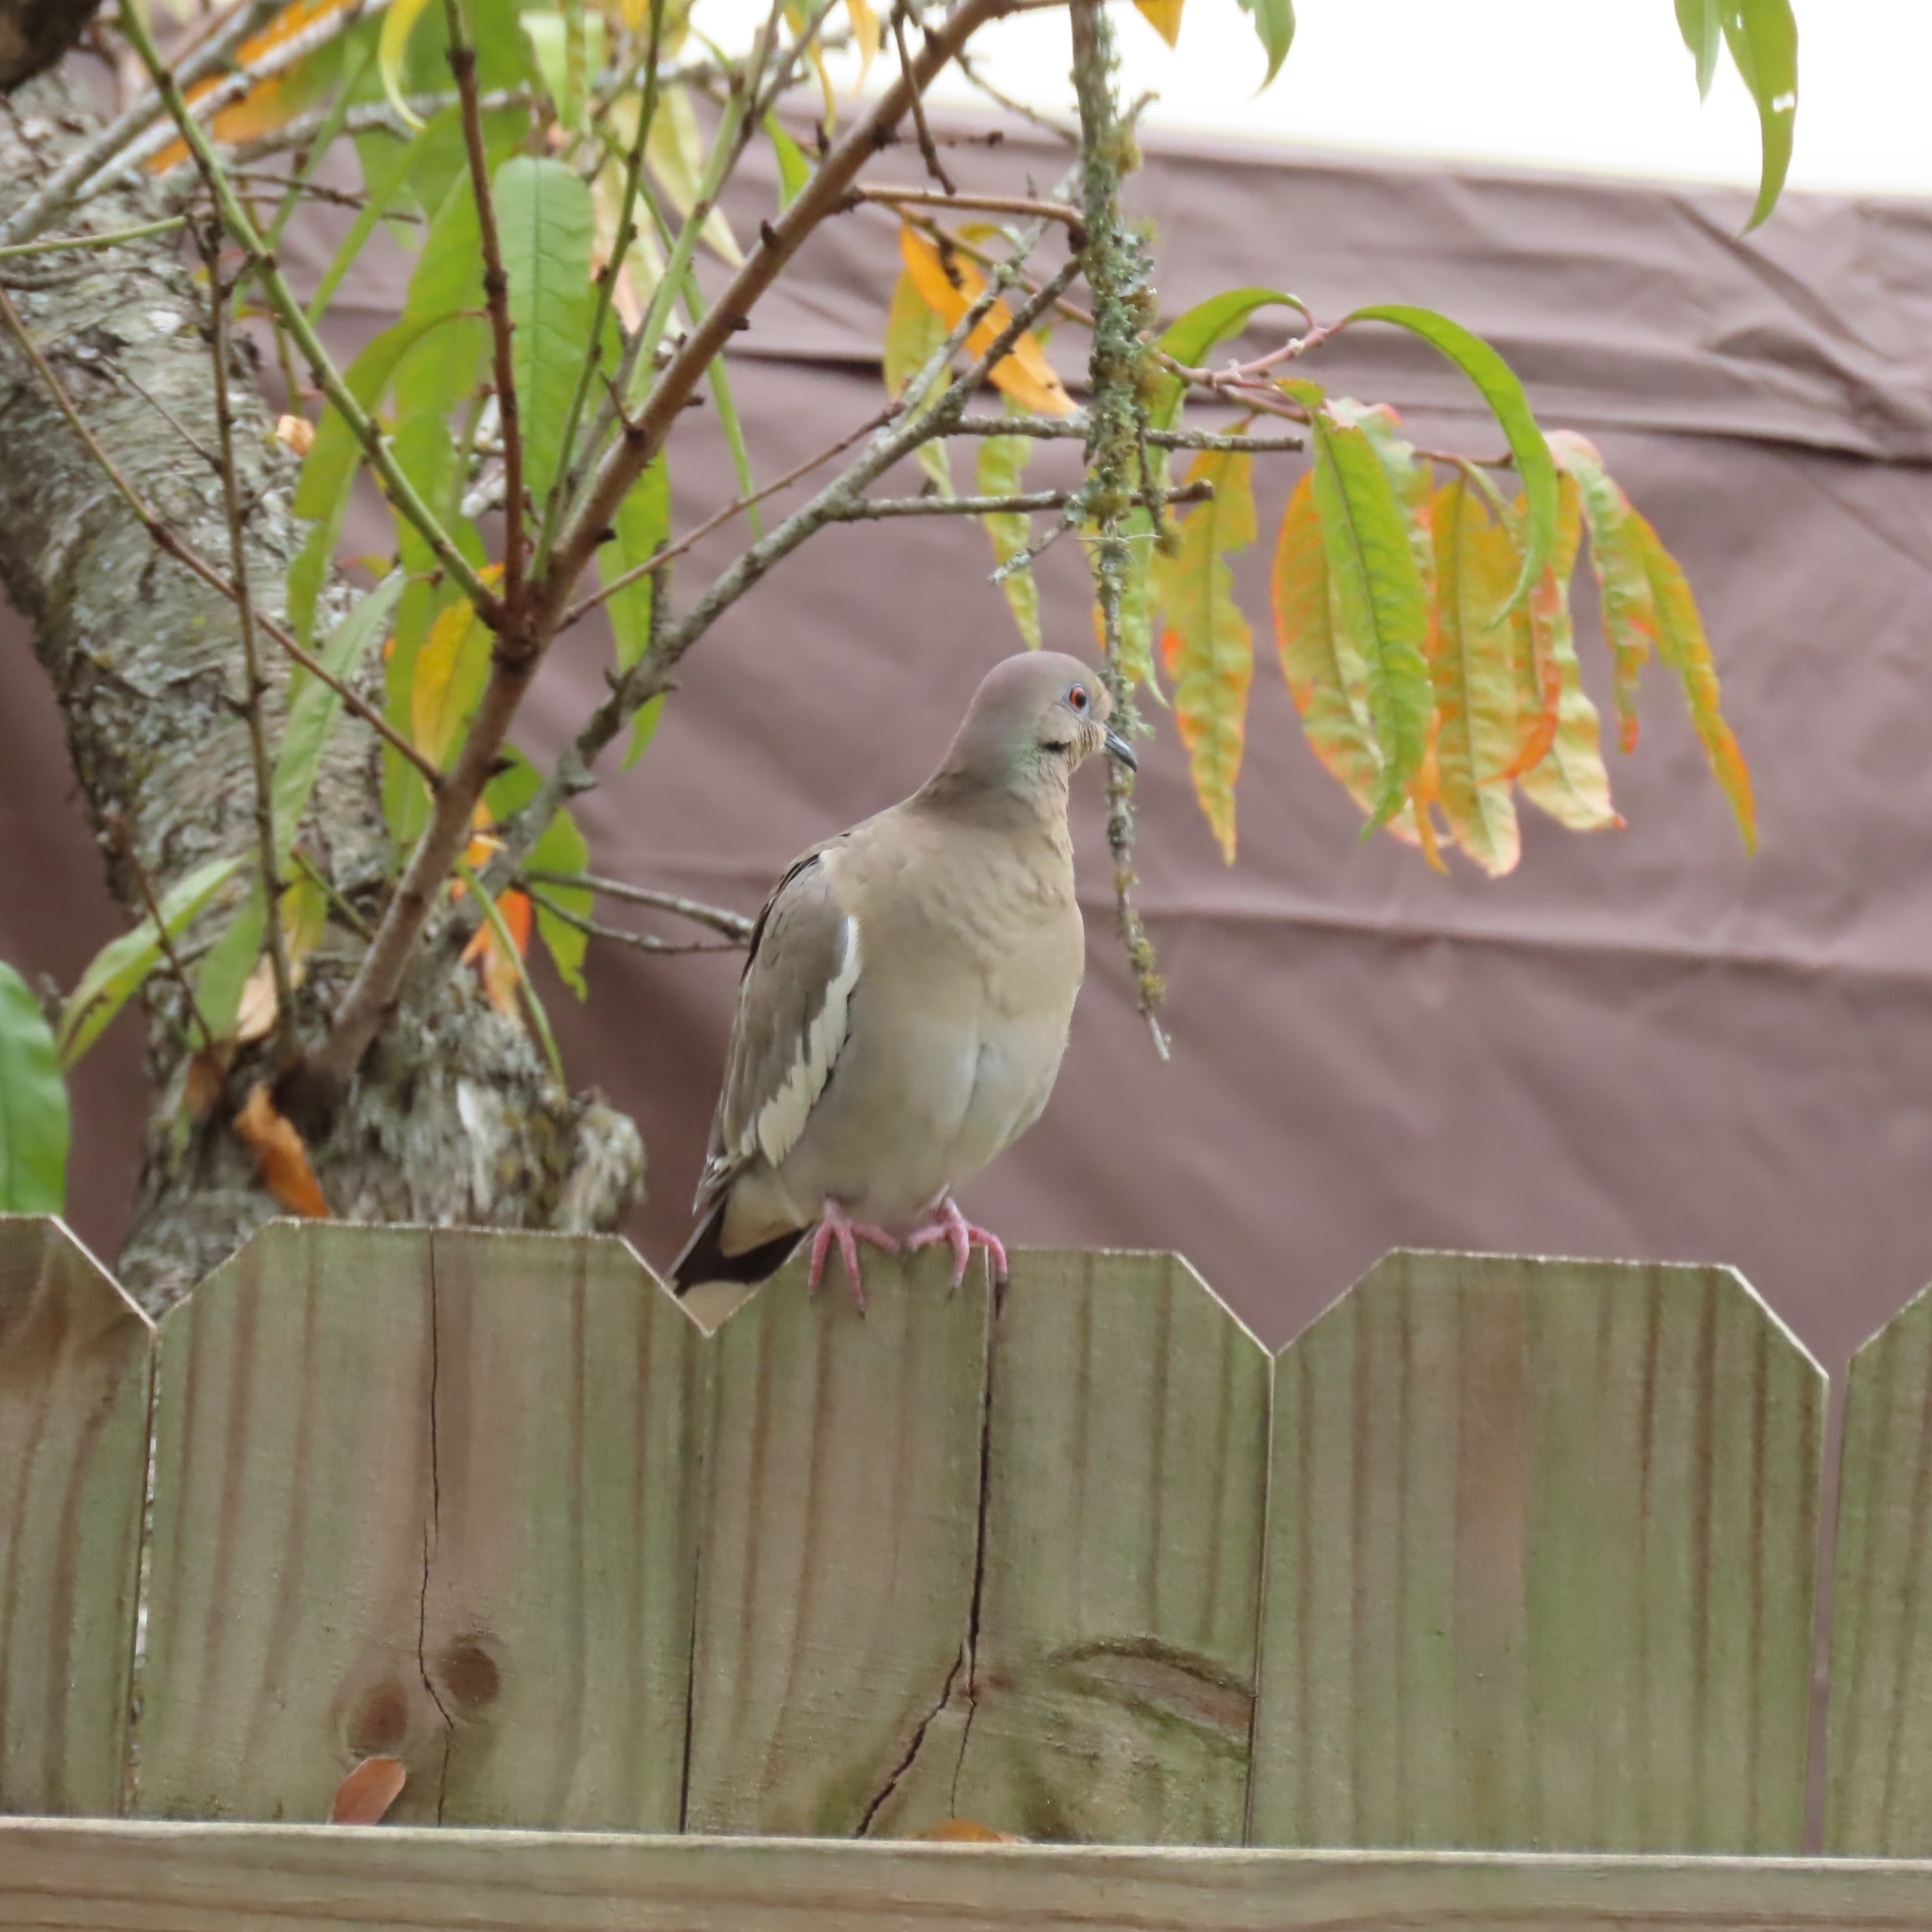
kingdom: Animalia
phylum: Chordata
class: Aves
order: Columbiformes
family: Columbidae
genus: Zenaida
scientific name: Zenaida asiatica
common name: White-winged dove
